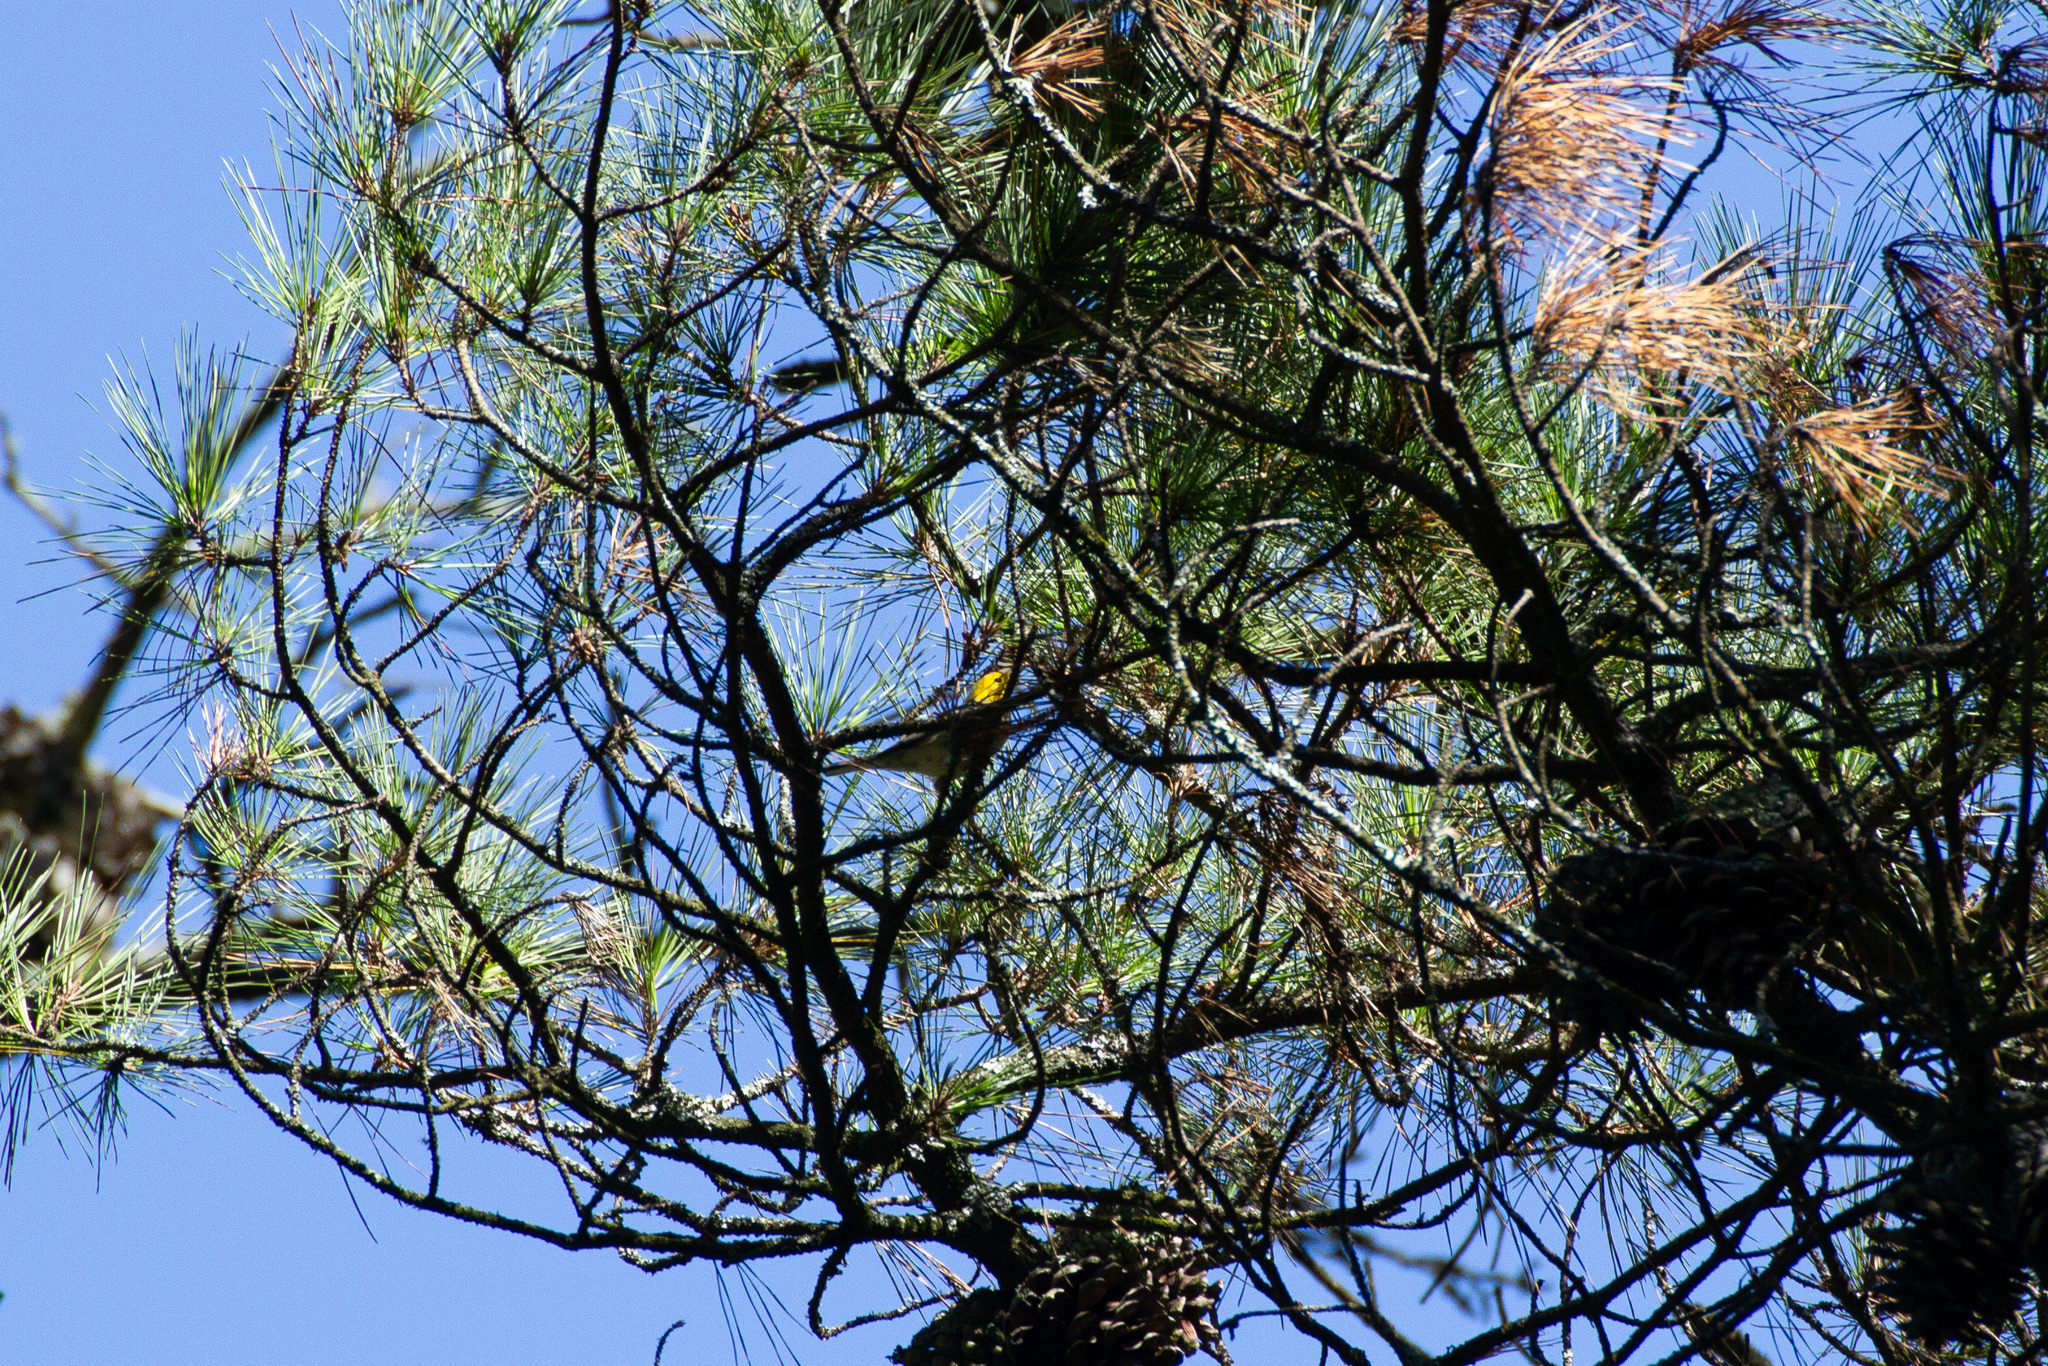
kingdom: Animalia
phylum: Chordata
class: Aves
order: Passeriformes
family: Parulidae
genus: Setophaga
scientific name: Setophaga occidentalis
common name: Hermit warbler
